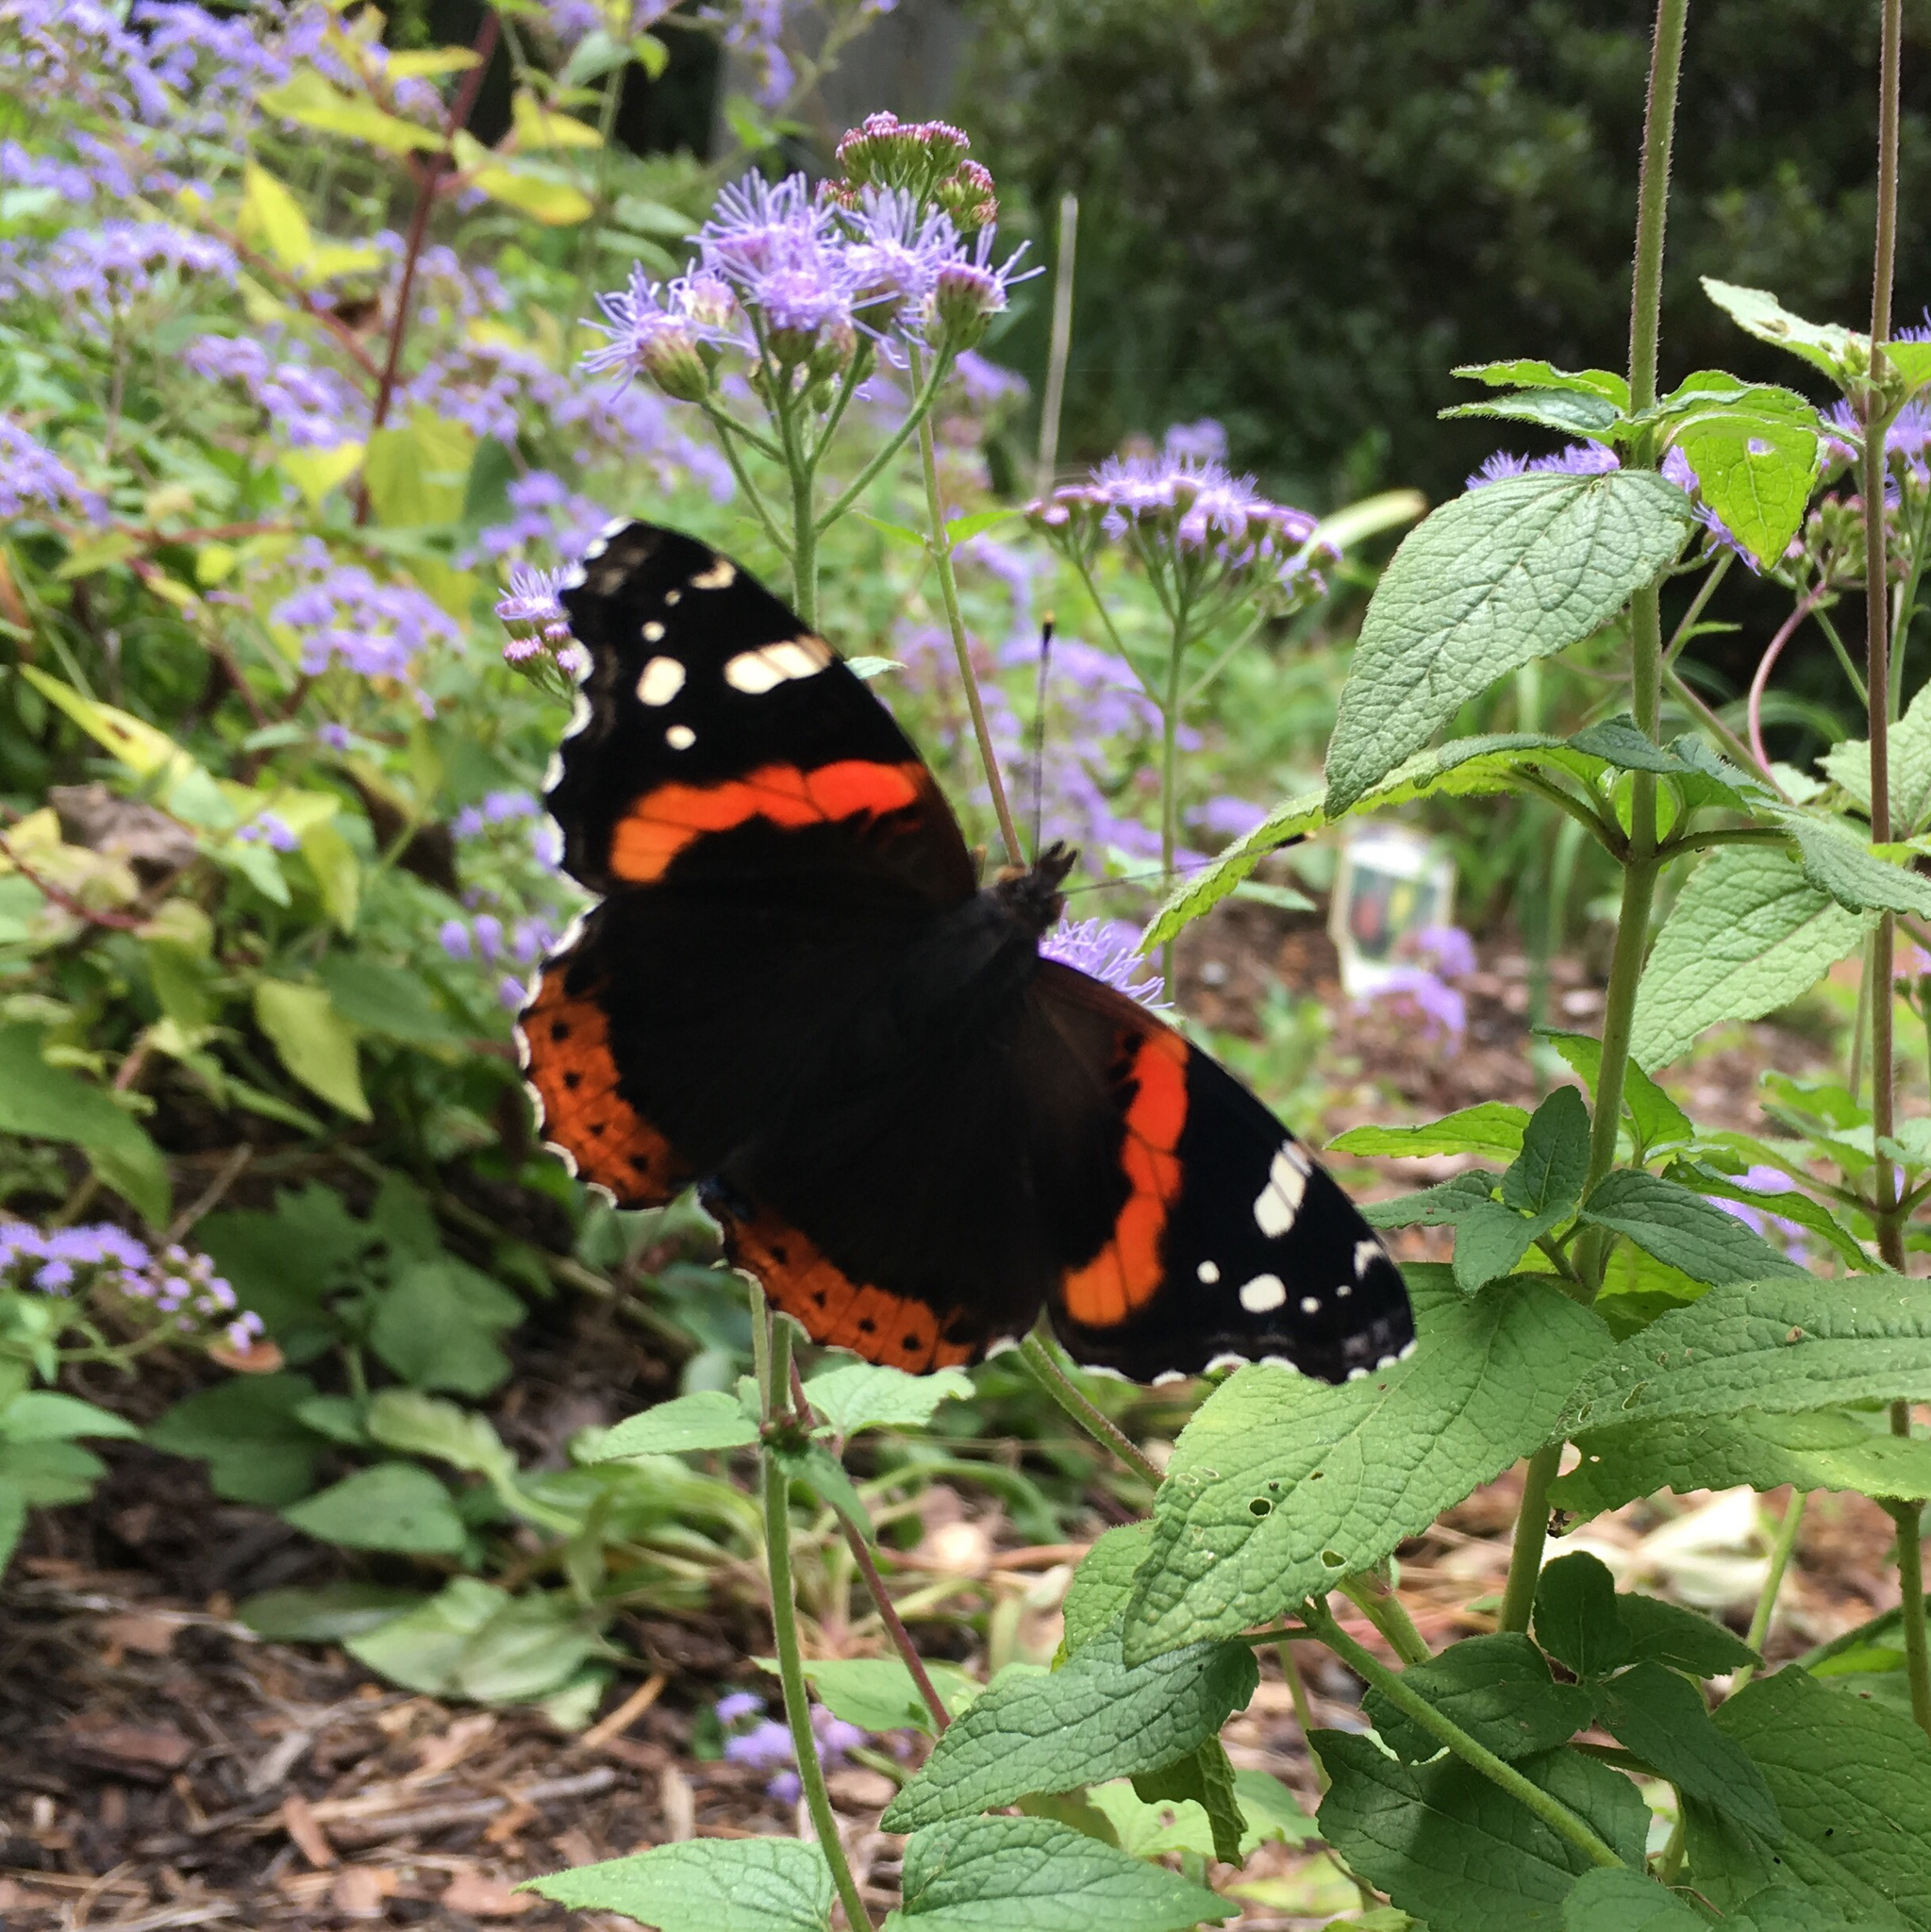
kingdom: Animalia
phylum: Arthropoda
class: Insecta
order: Lepidoptera
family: Nymphalidae
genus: Vanessa
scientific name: Vanessa atalanta
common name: Red admiral
